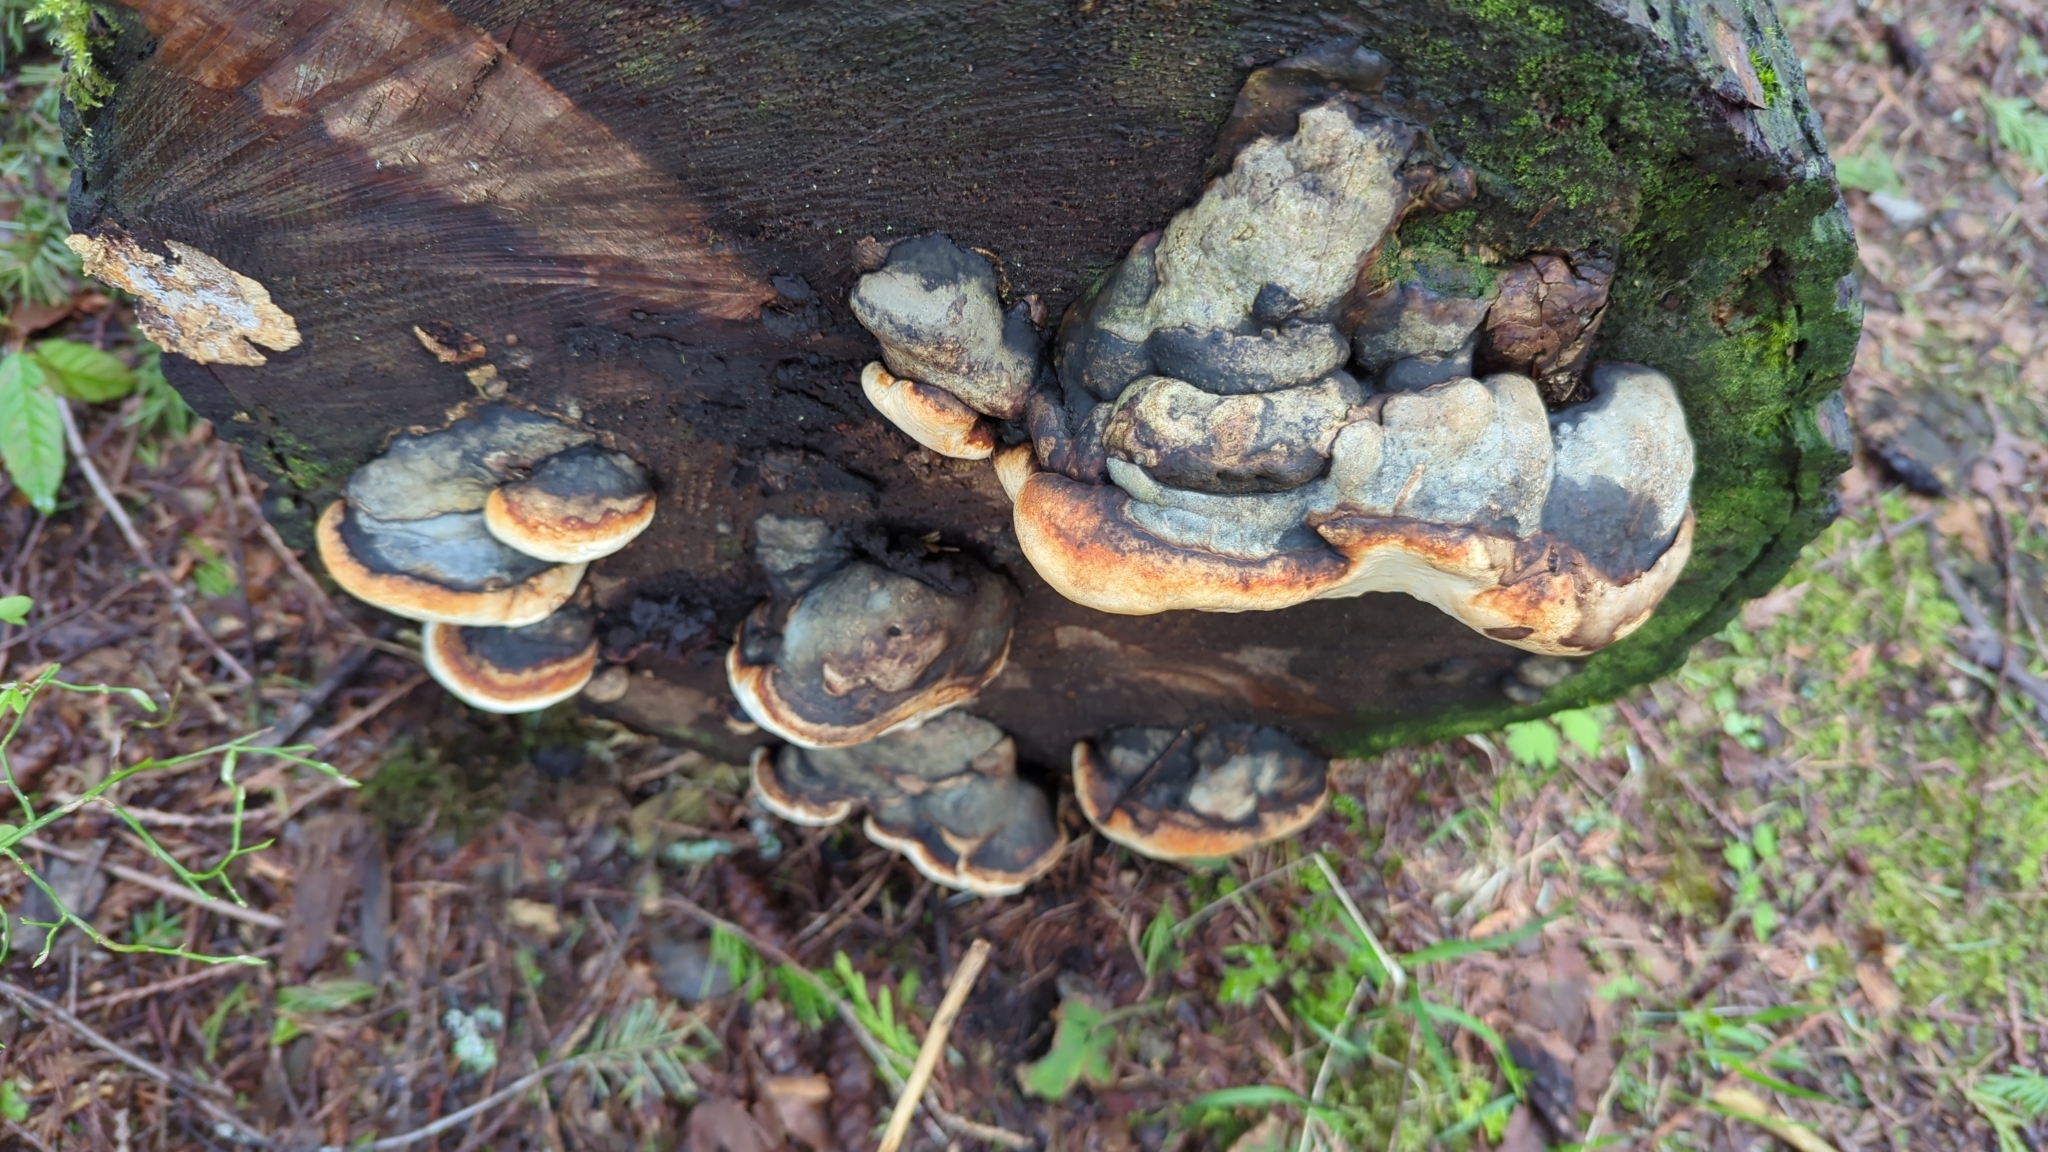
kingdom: Fungi
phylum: Basidiomycota
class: Agaricomycetes
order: Polyporales
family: Fomitopsidaceae
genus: Fomitopsis
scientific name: Fomitopsis mounceae
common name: Northern red belt
